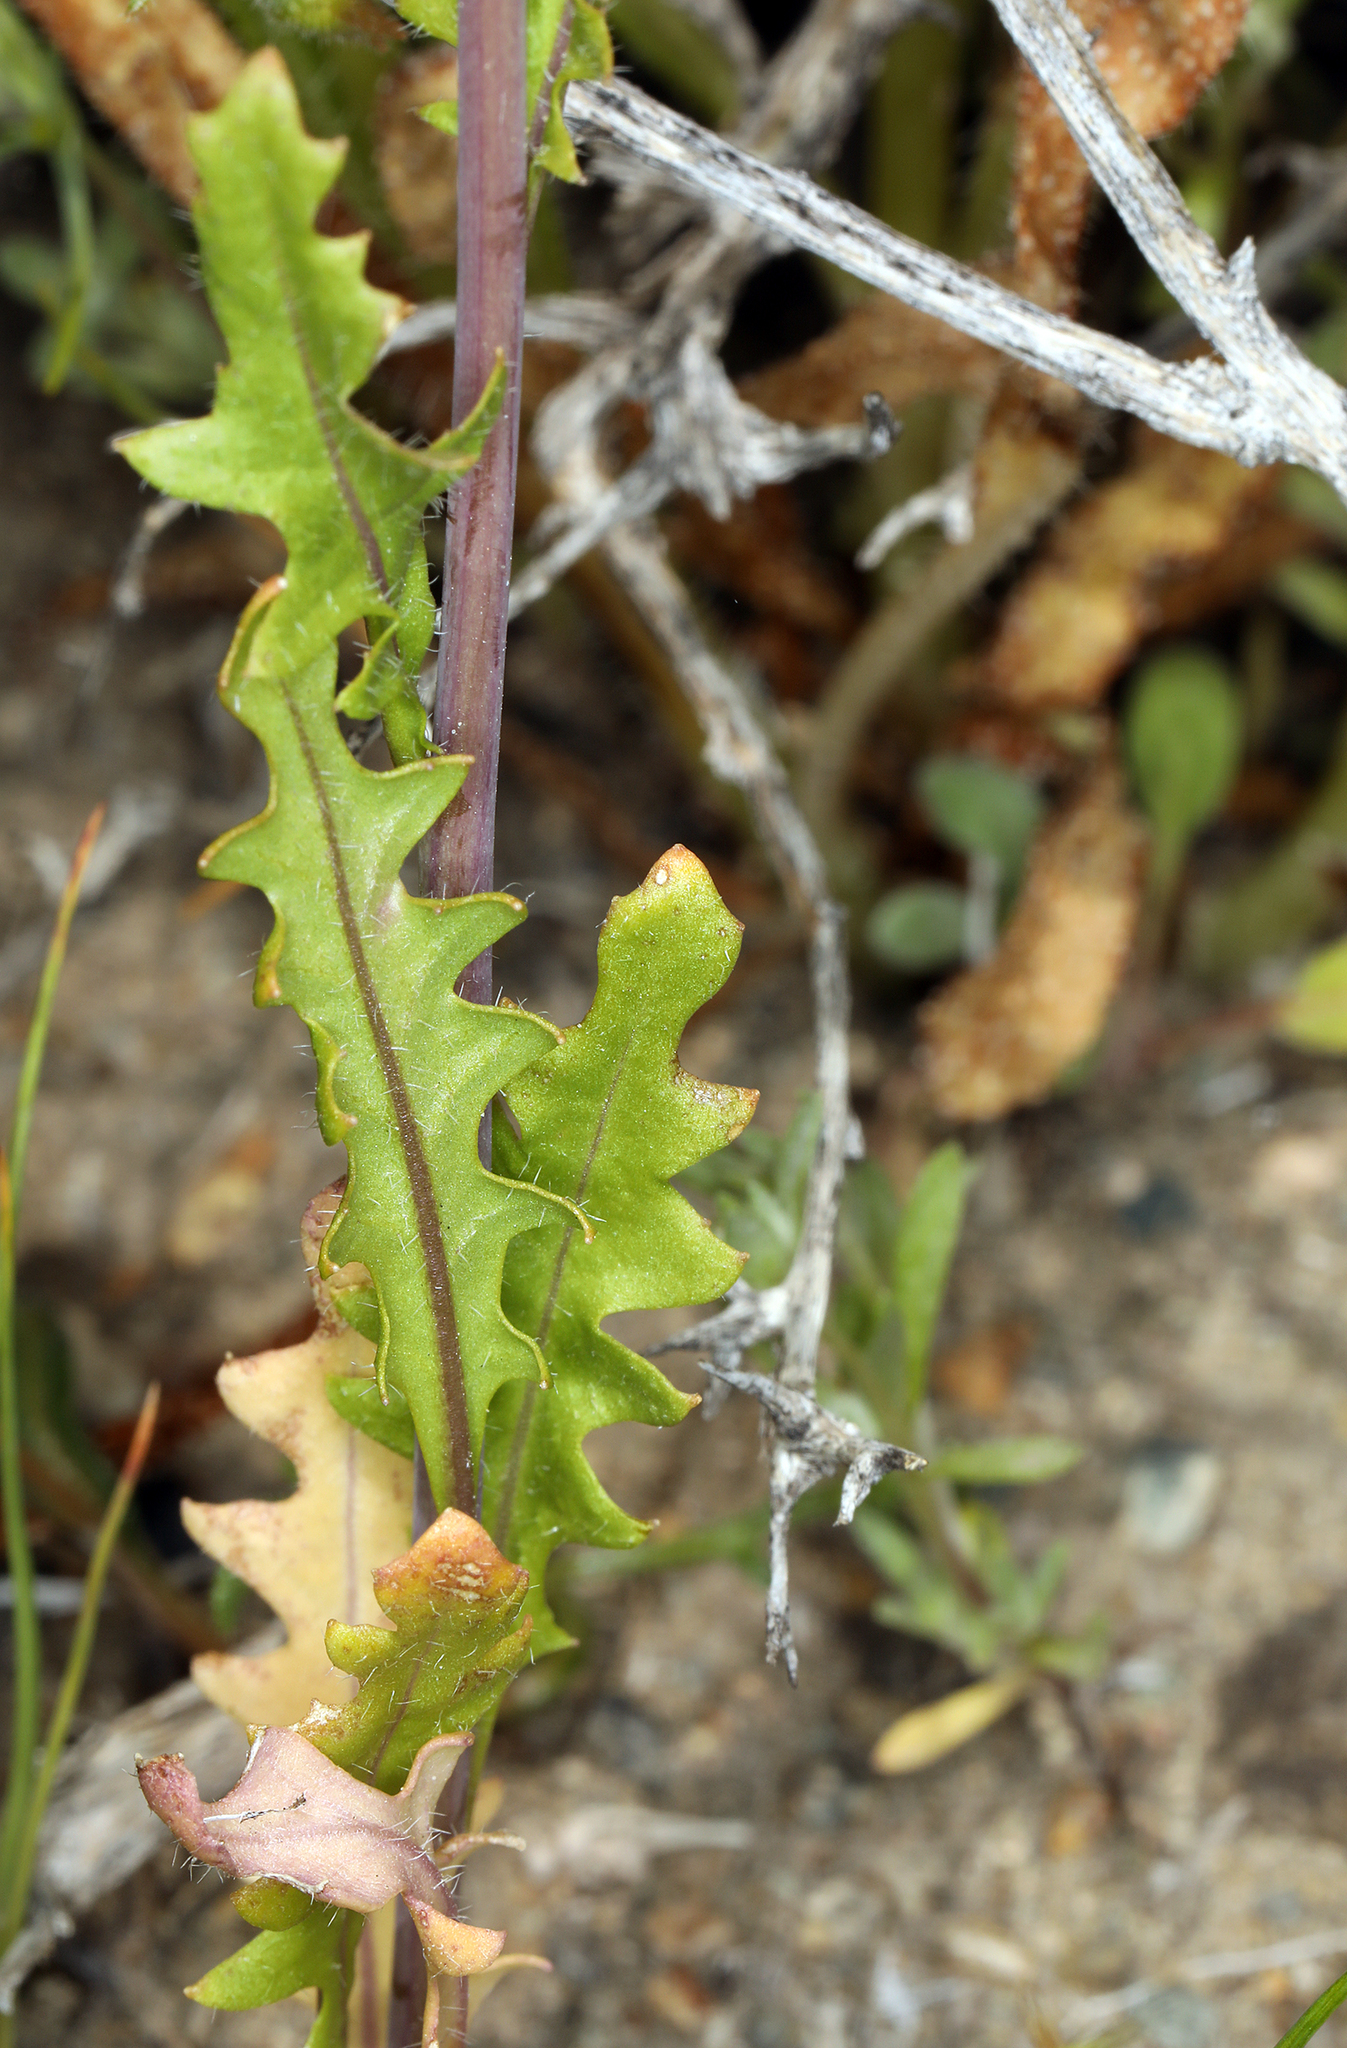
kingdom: Plantae
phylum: Tracheophyta
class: Magnoliopsida
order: Brassicales
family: Brassicaceae
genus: Streptanthus
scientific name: Streptanthus lasiophyllus
